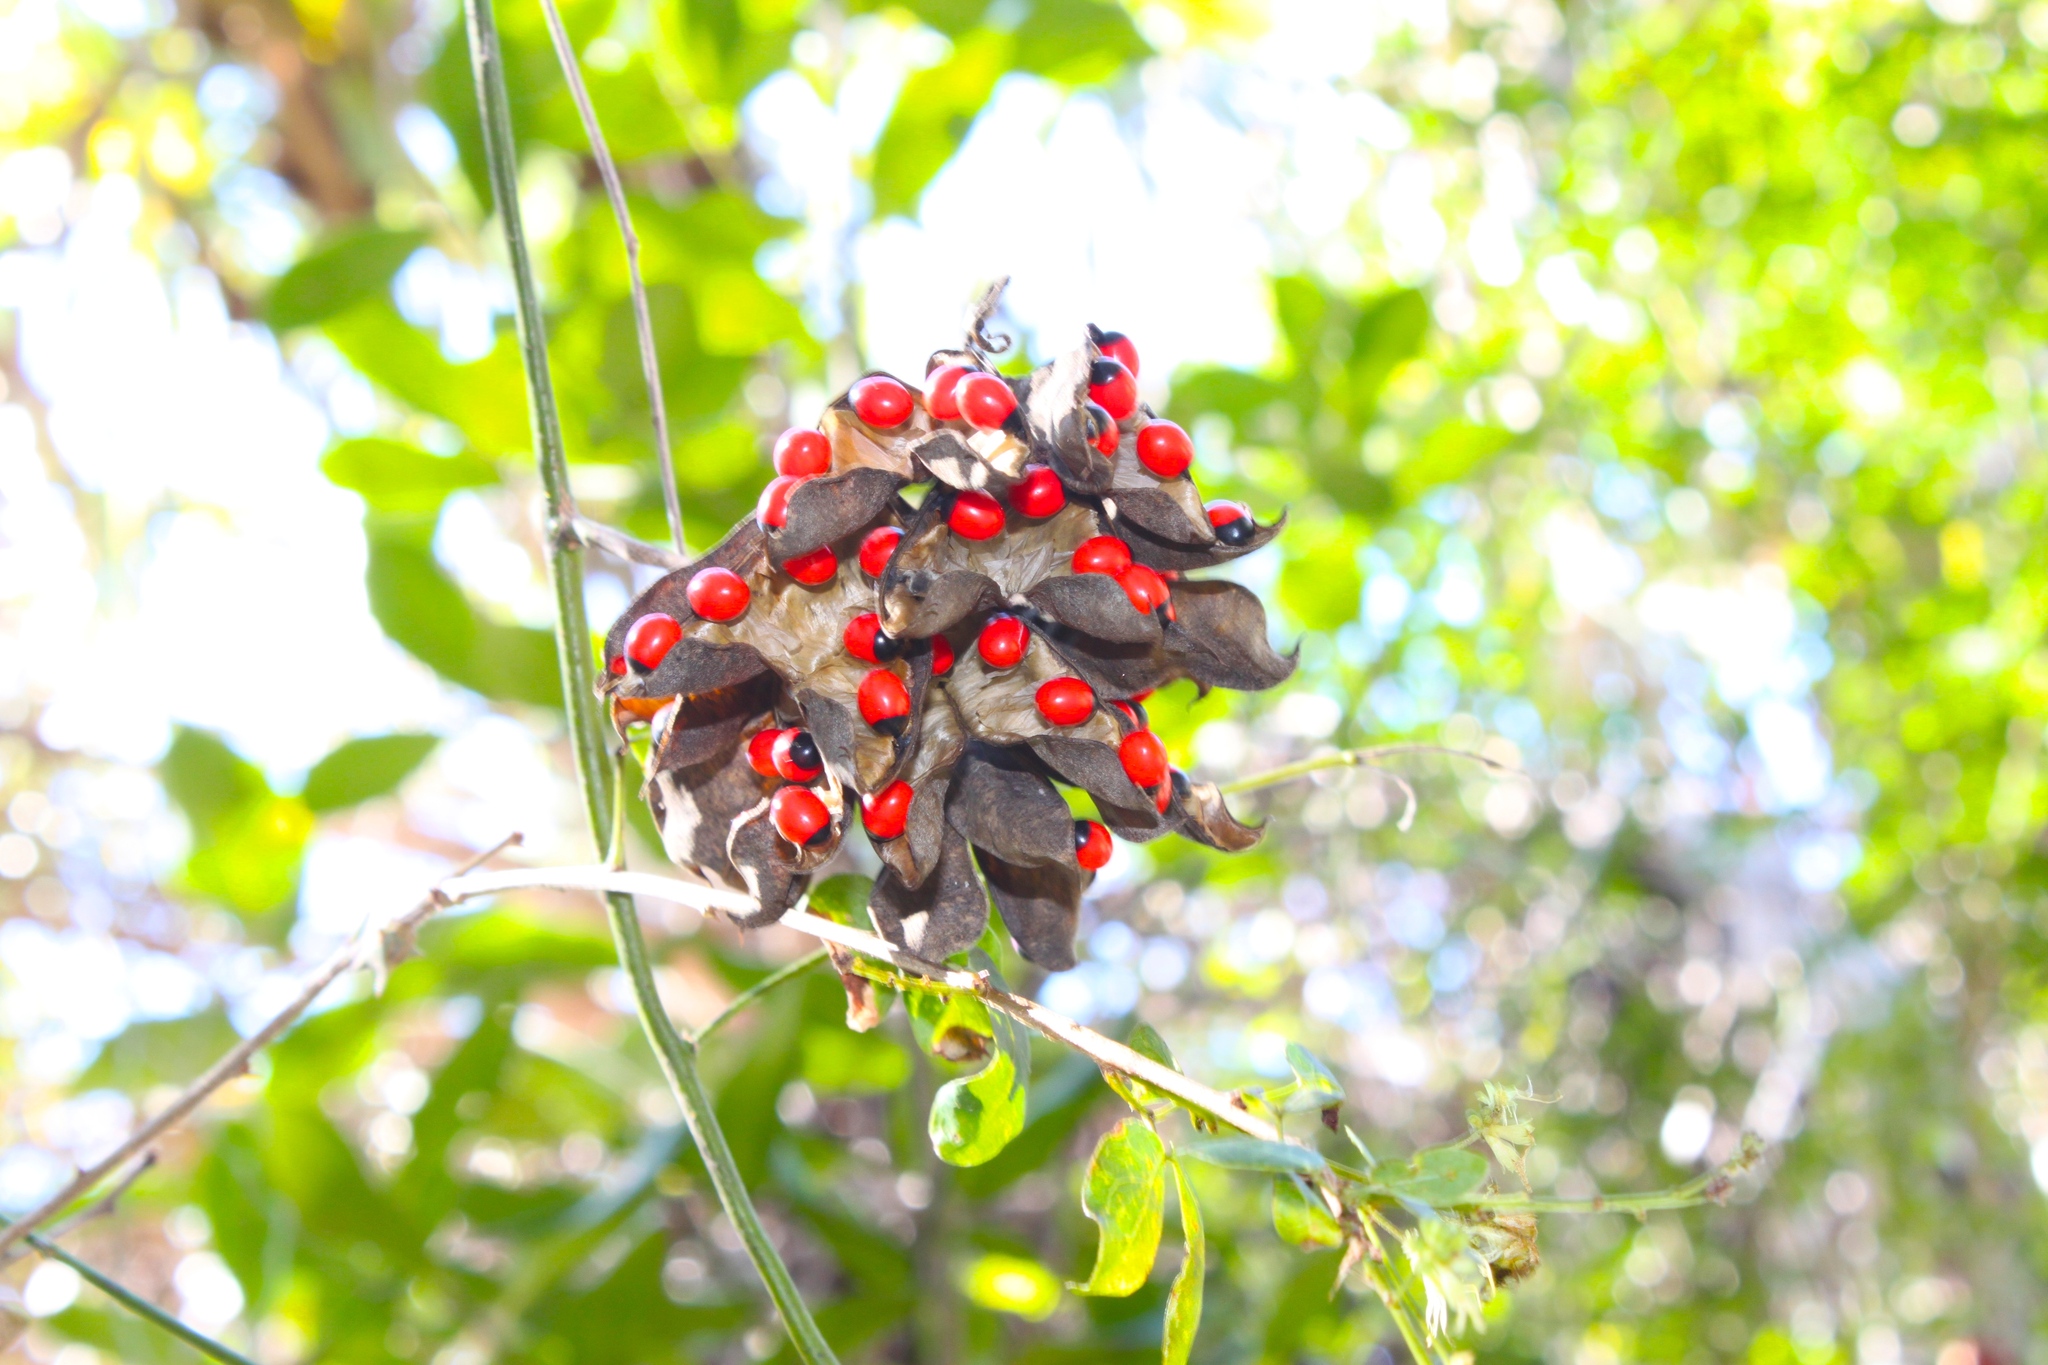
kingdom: Plantae
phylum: Tracheophyta
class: Magnoliopsida
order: Fabales
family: Fabaceae
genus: Abrus
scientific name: Abrus precatorius
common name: Rosarypea
